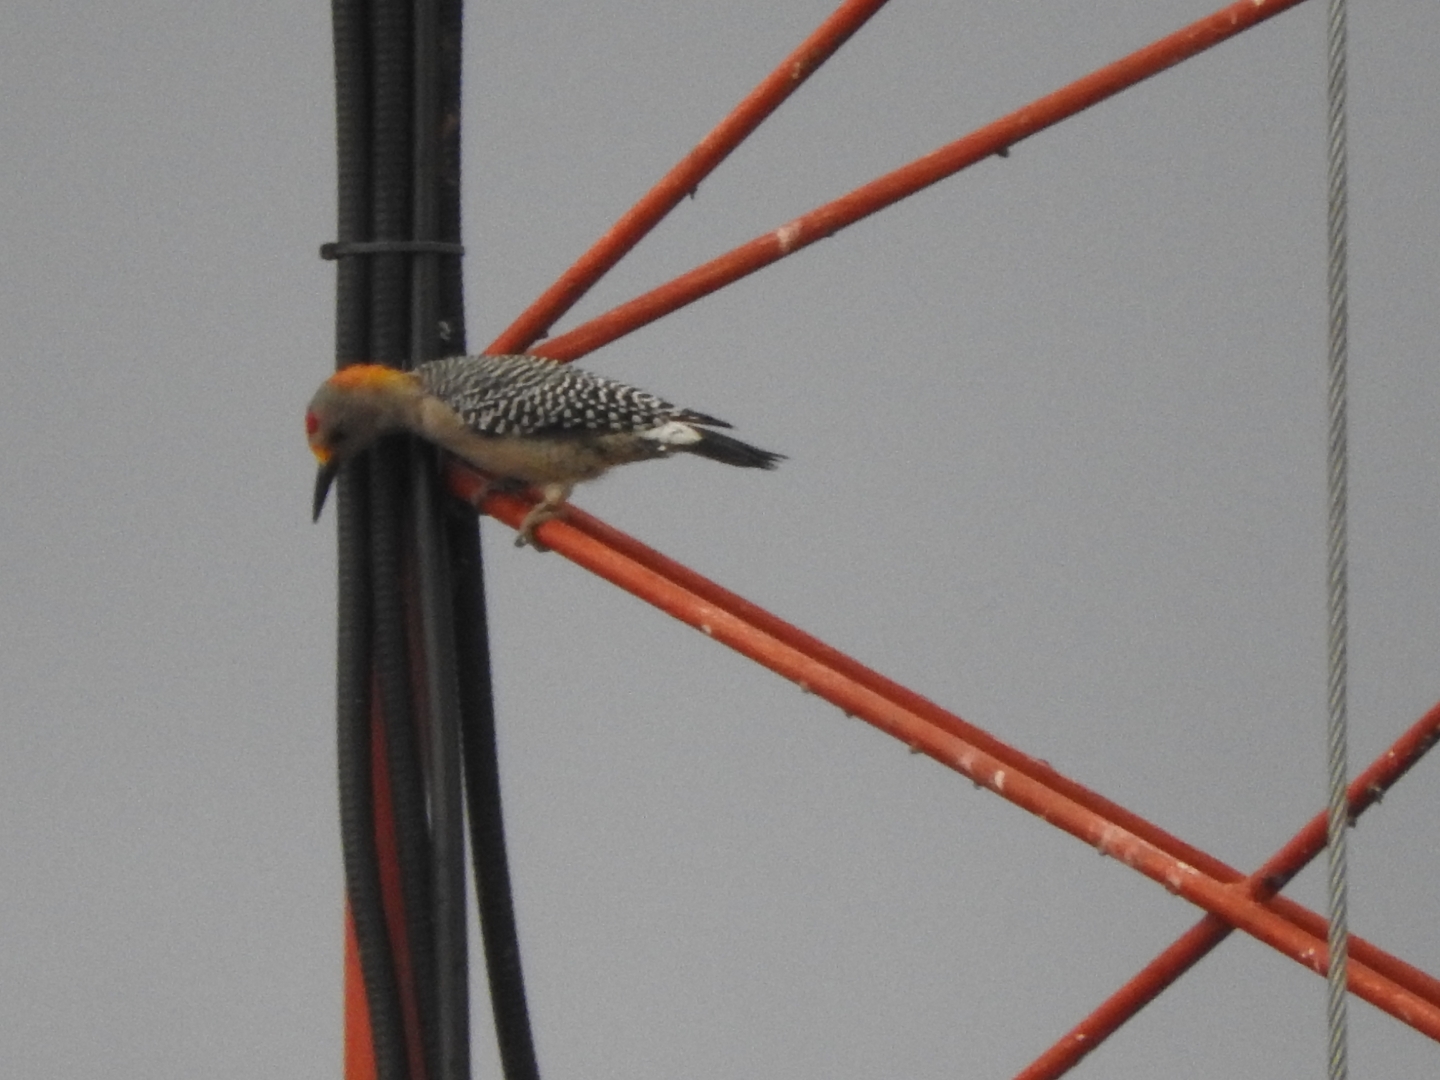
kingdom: Animalia
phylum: Chordata
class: Aves
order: Piciformes
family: Picidae
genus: Melanerpes
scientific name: Melanerpes aurifrons
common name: Golden-fronted woodpecker
